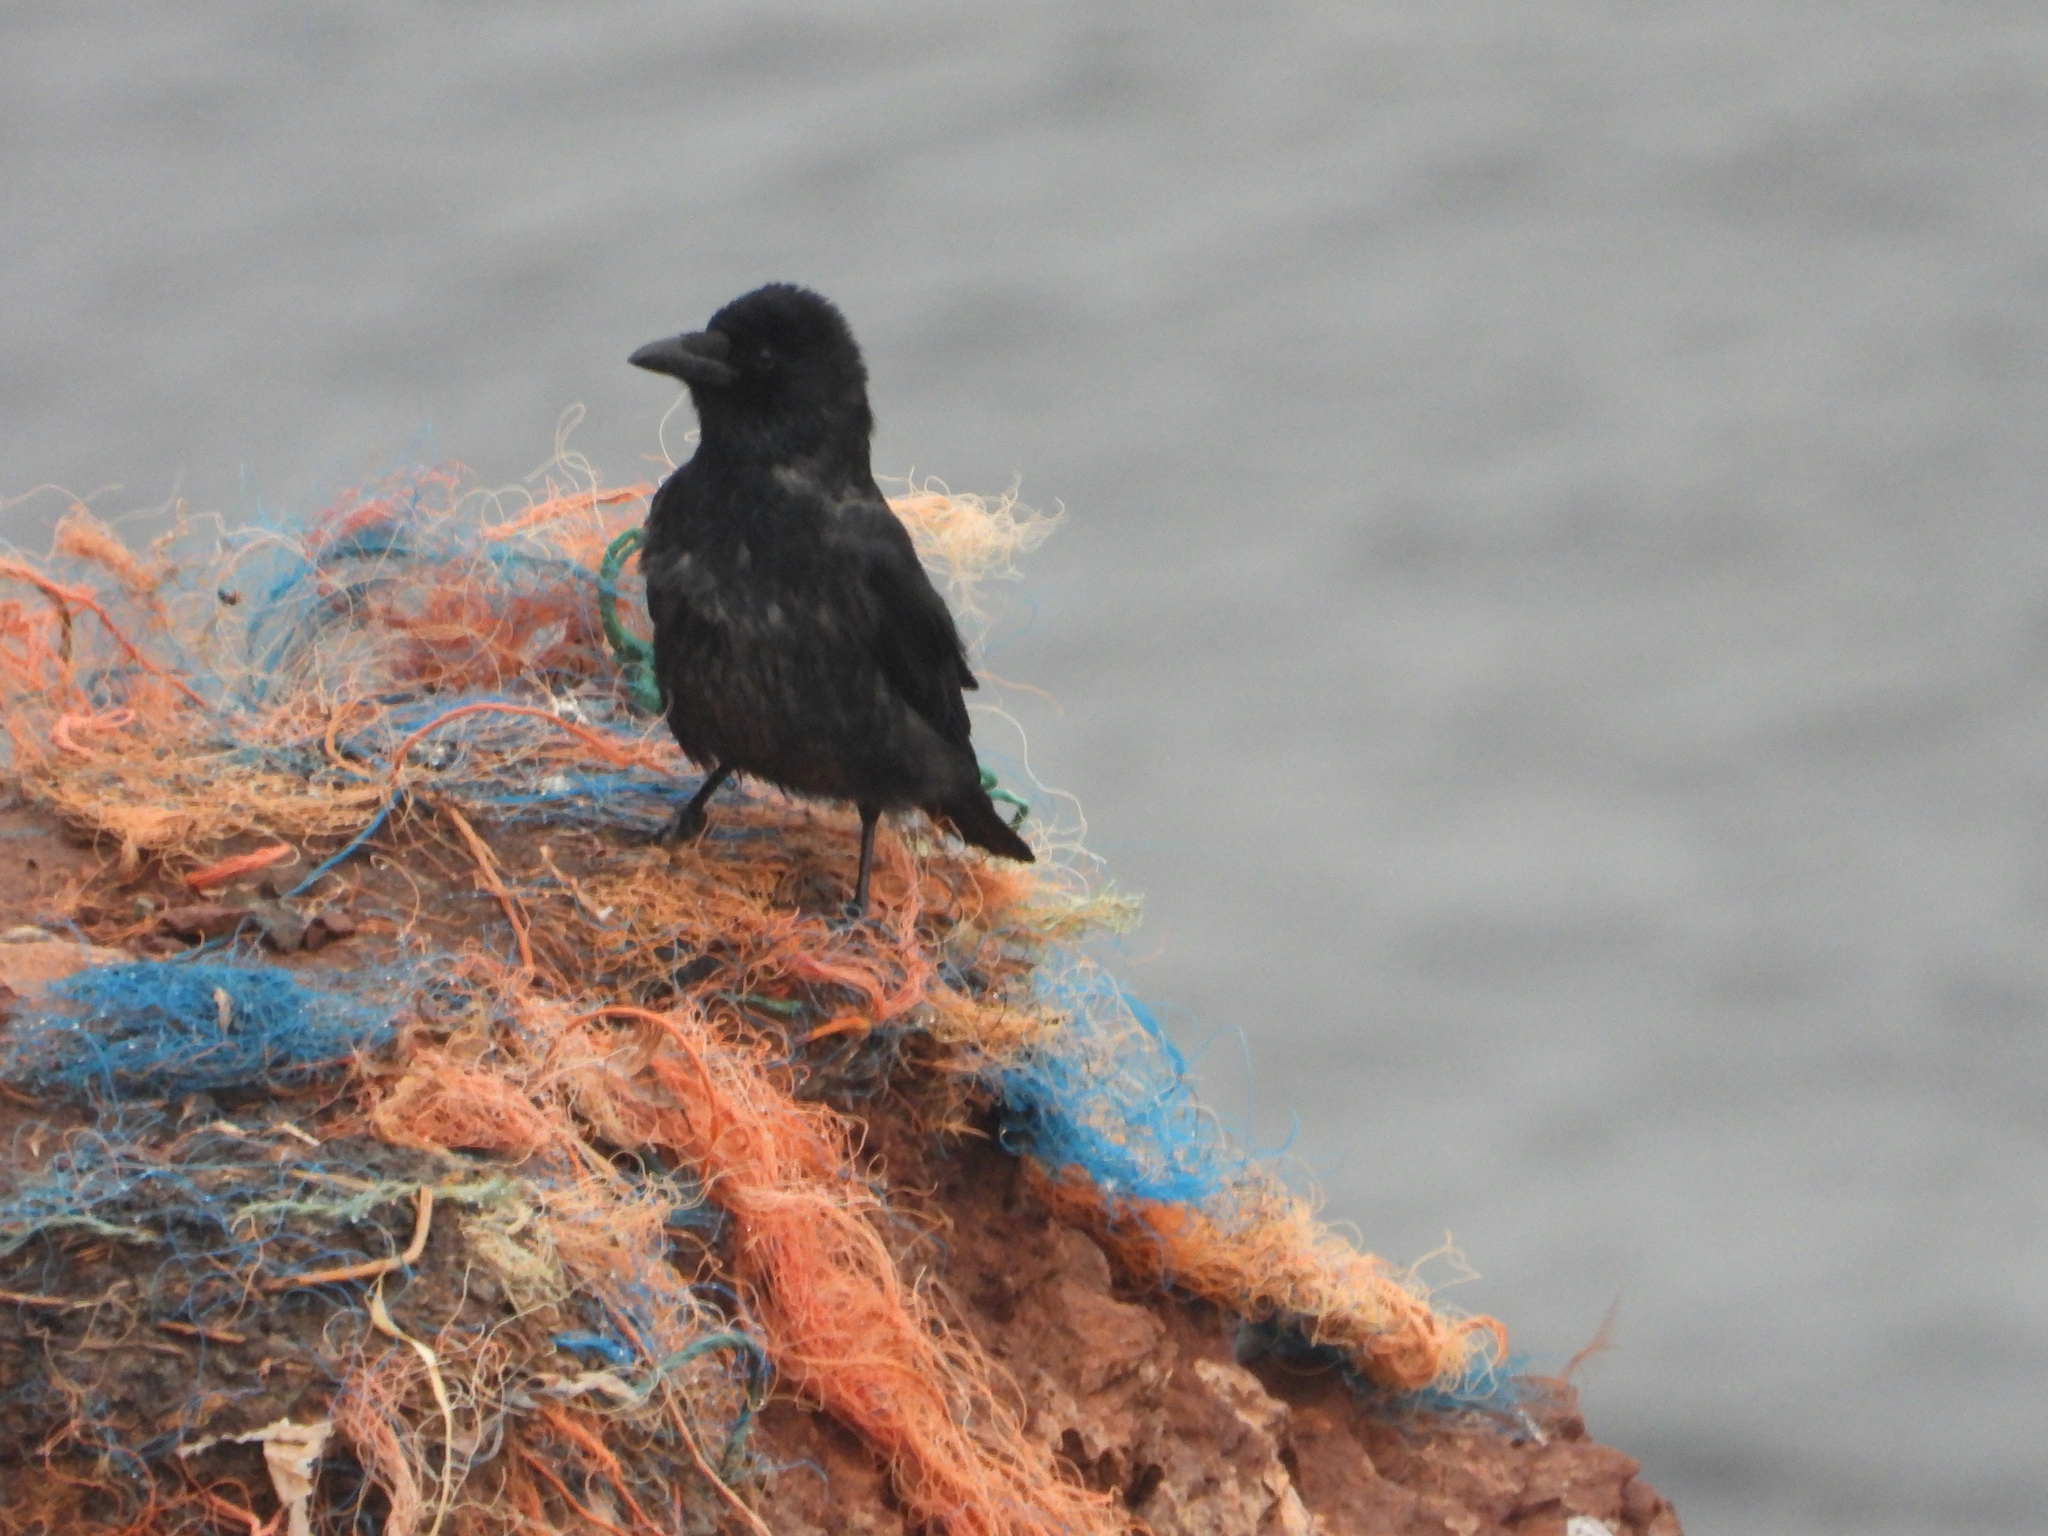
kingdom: Animalia
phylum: Chordata
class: Aves
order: Passeriformes
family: Corvidae
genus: Corvus
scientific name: Corvus
